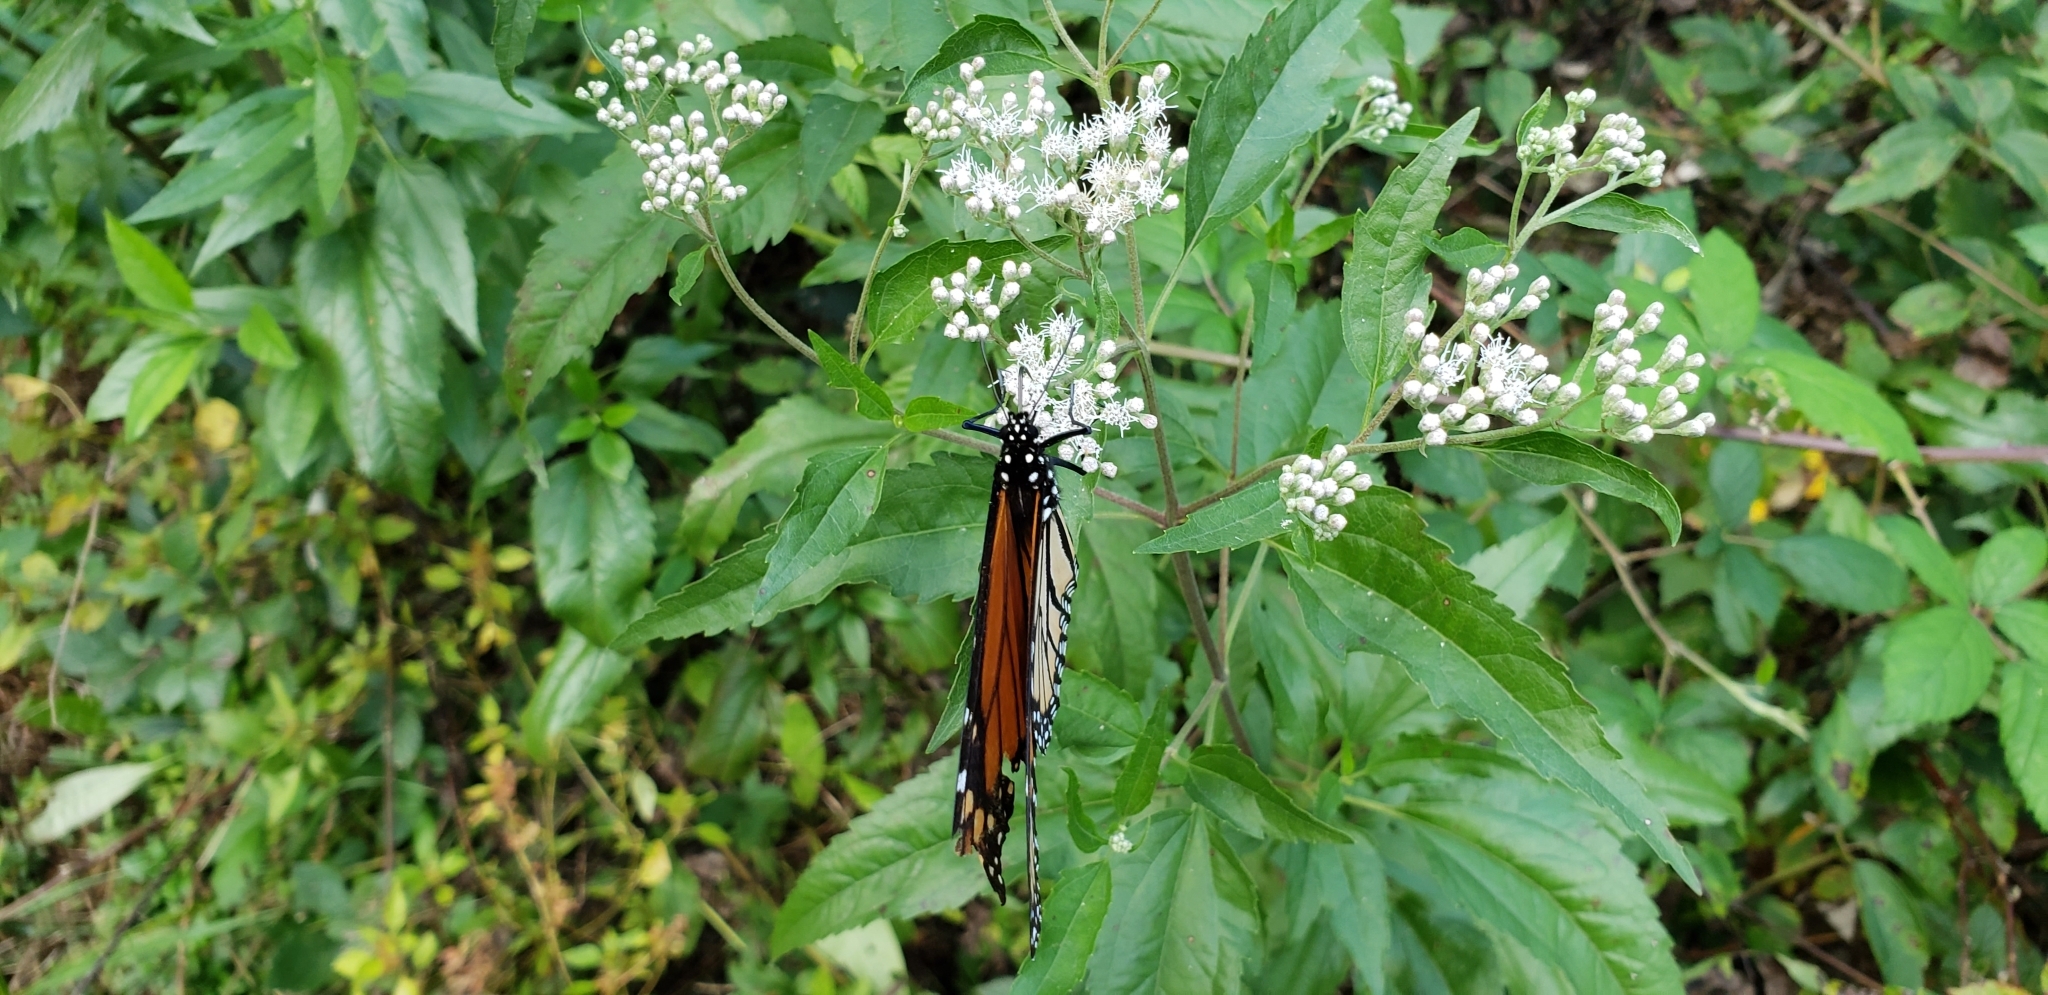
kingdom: Plantae
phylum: Tracheophyta
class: Magnoliopsida
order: Asterales
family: Asteraceae
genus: Eupatorium
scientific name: Eupatorium serotinum
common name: Late boneset
